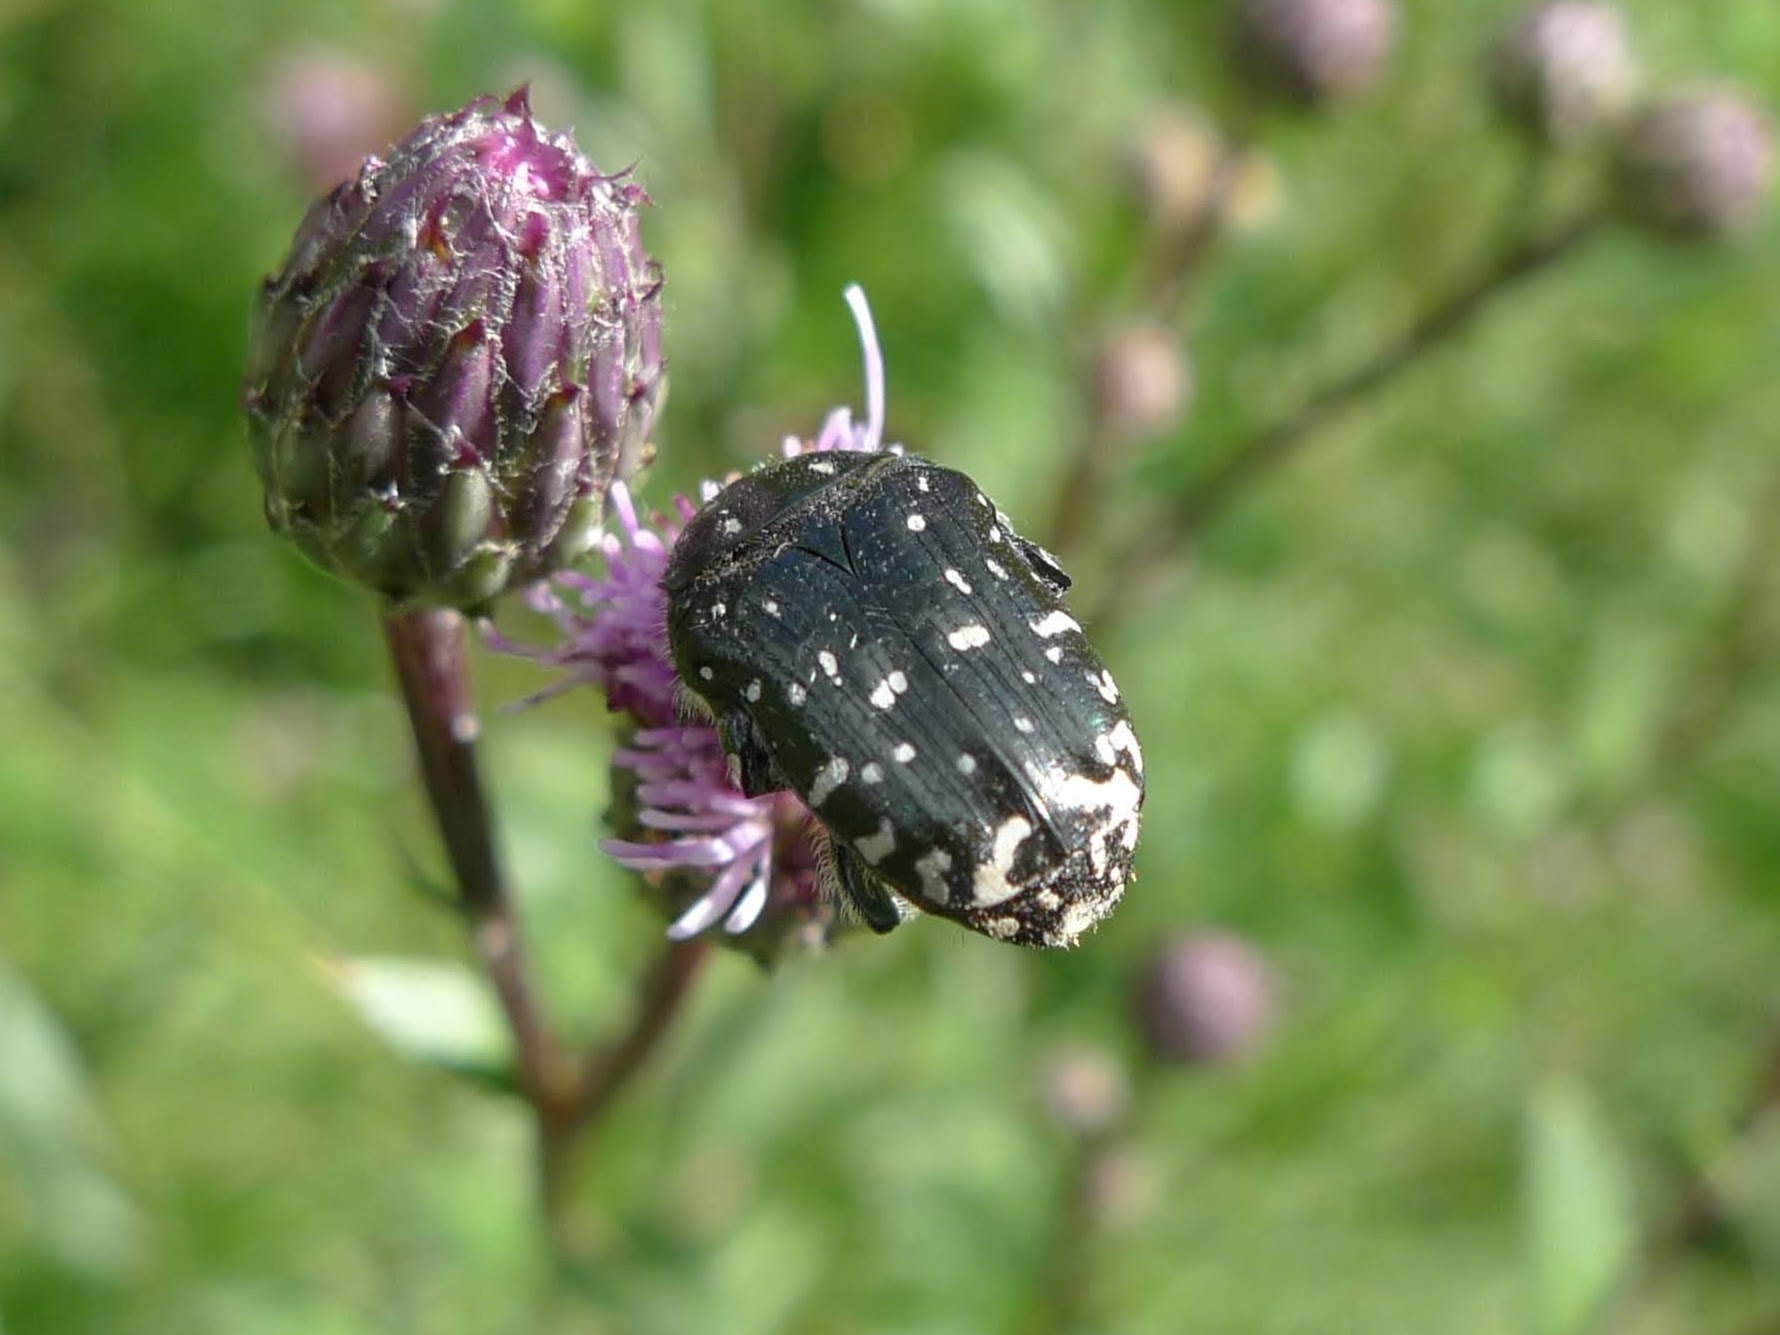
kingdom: Animalia
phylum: Arthropoda
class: Insecta
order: Coleoptera
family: Scarabaeidae
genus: Oxythyrea
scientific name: Oxythyrea funesta
